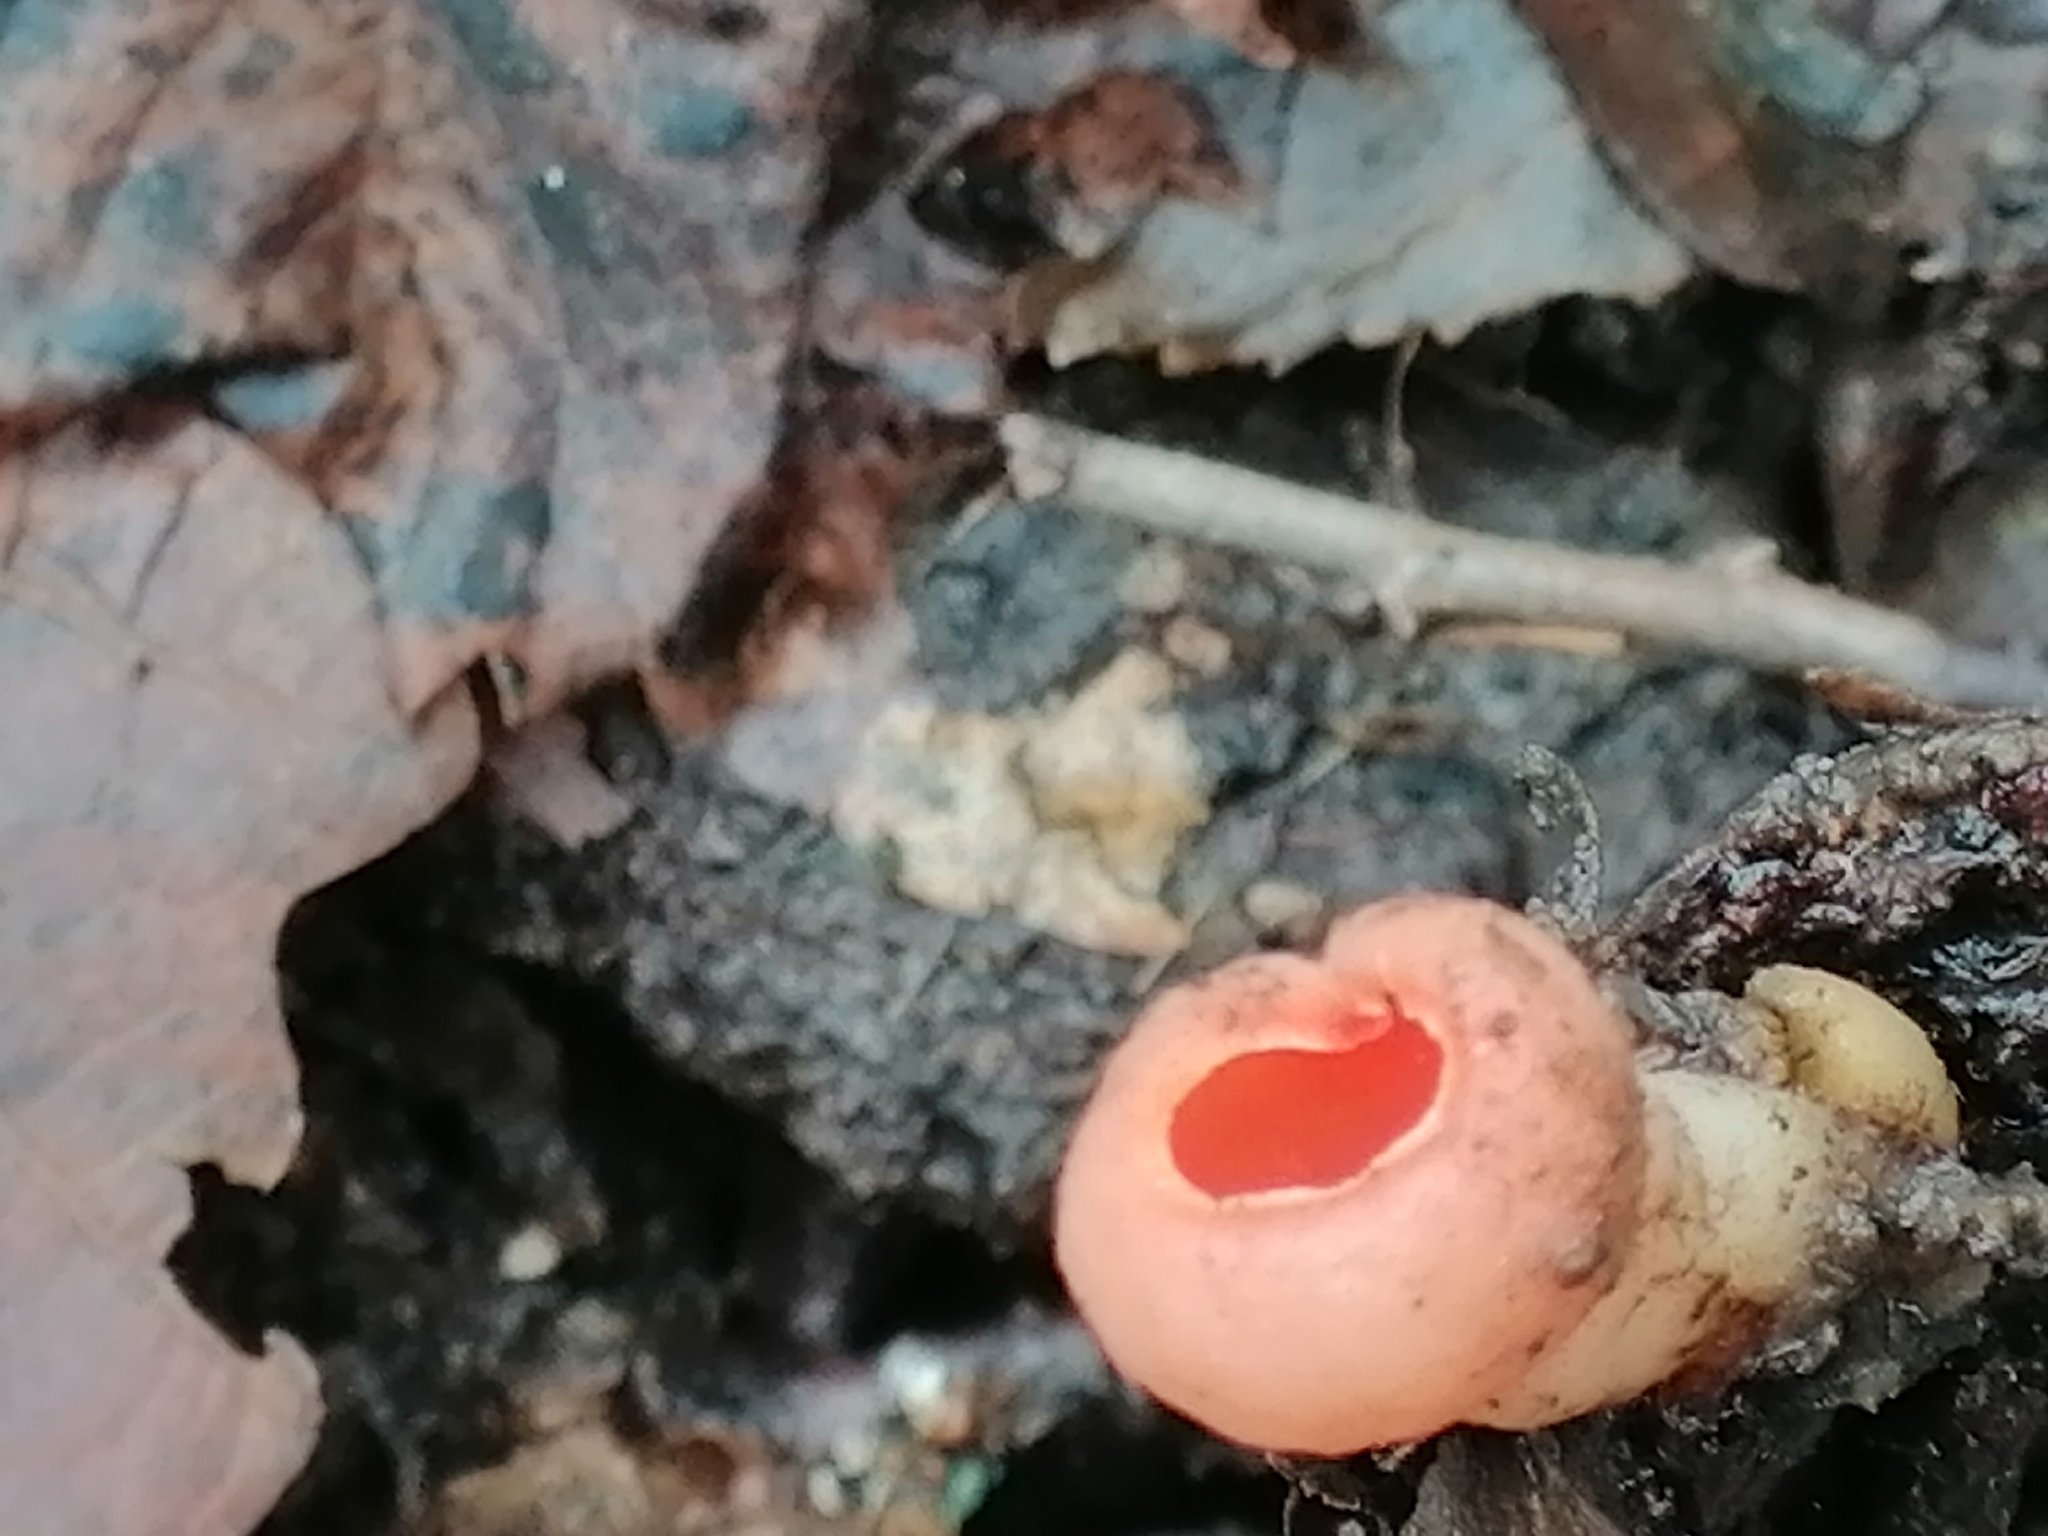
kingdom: Fungi
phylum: Ascomycota
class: Pezizomycetes
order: Pezizales
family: Sarcoscyphaceae
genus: Sarcoscypha
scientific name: Sarcoscypha
